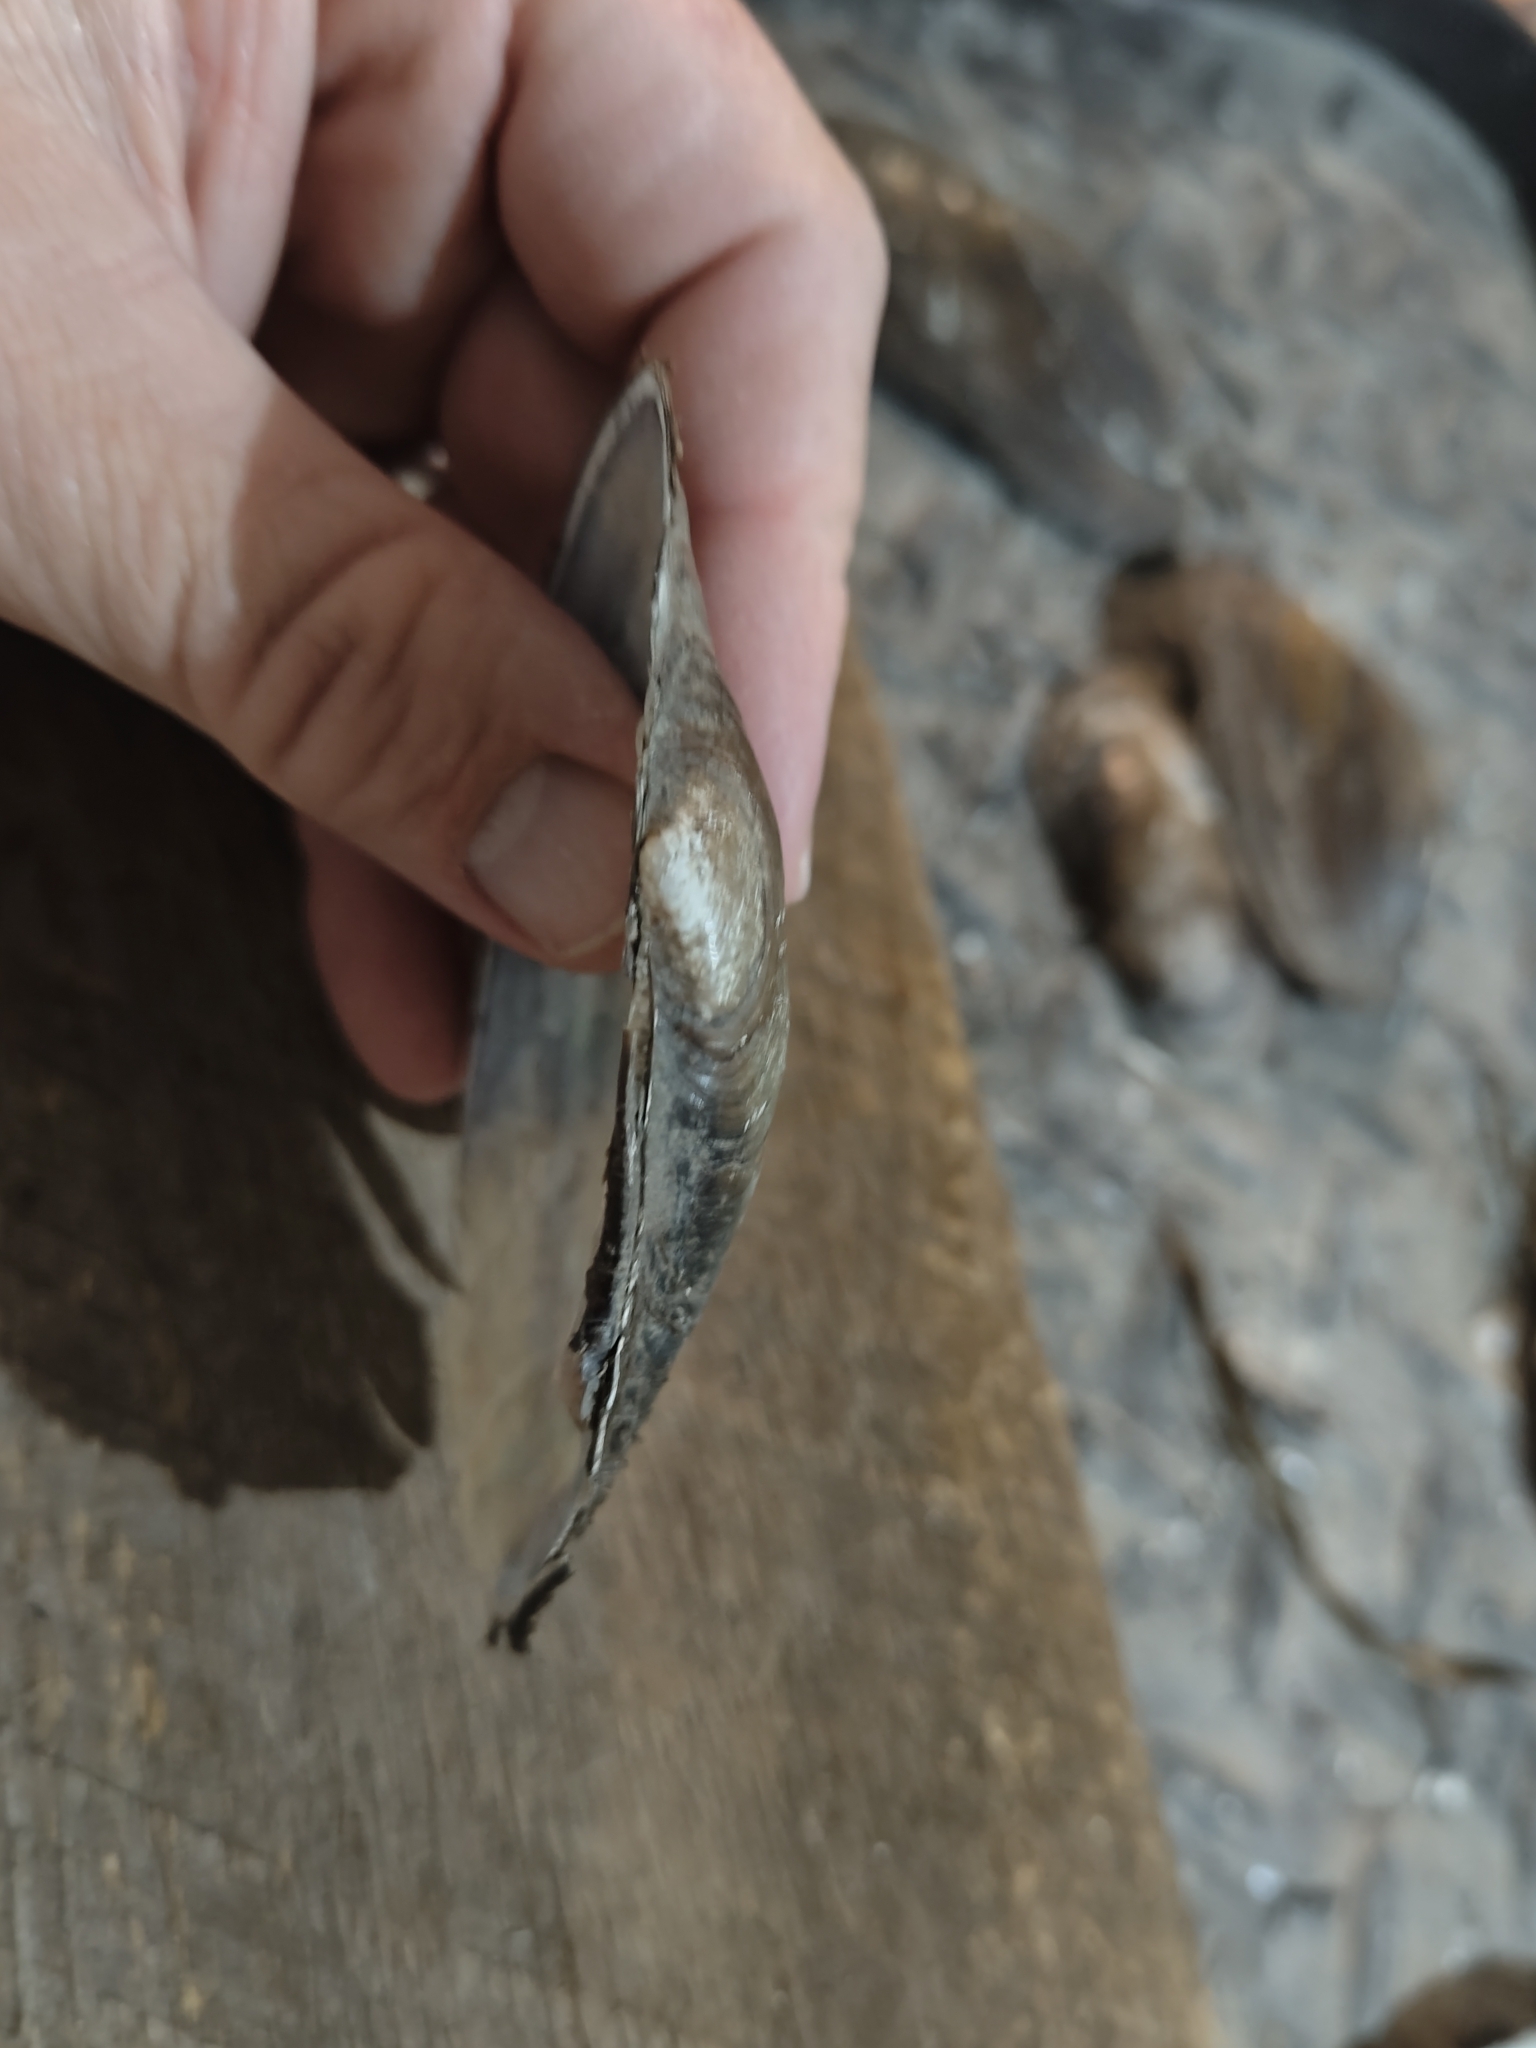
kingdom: Animalia
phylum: Mollusca
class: Bivalvia
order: Unionida
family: Unionidae
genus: Potamilus
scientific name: Potamilus fragilis
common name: Fragile papershell
